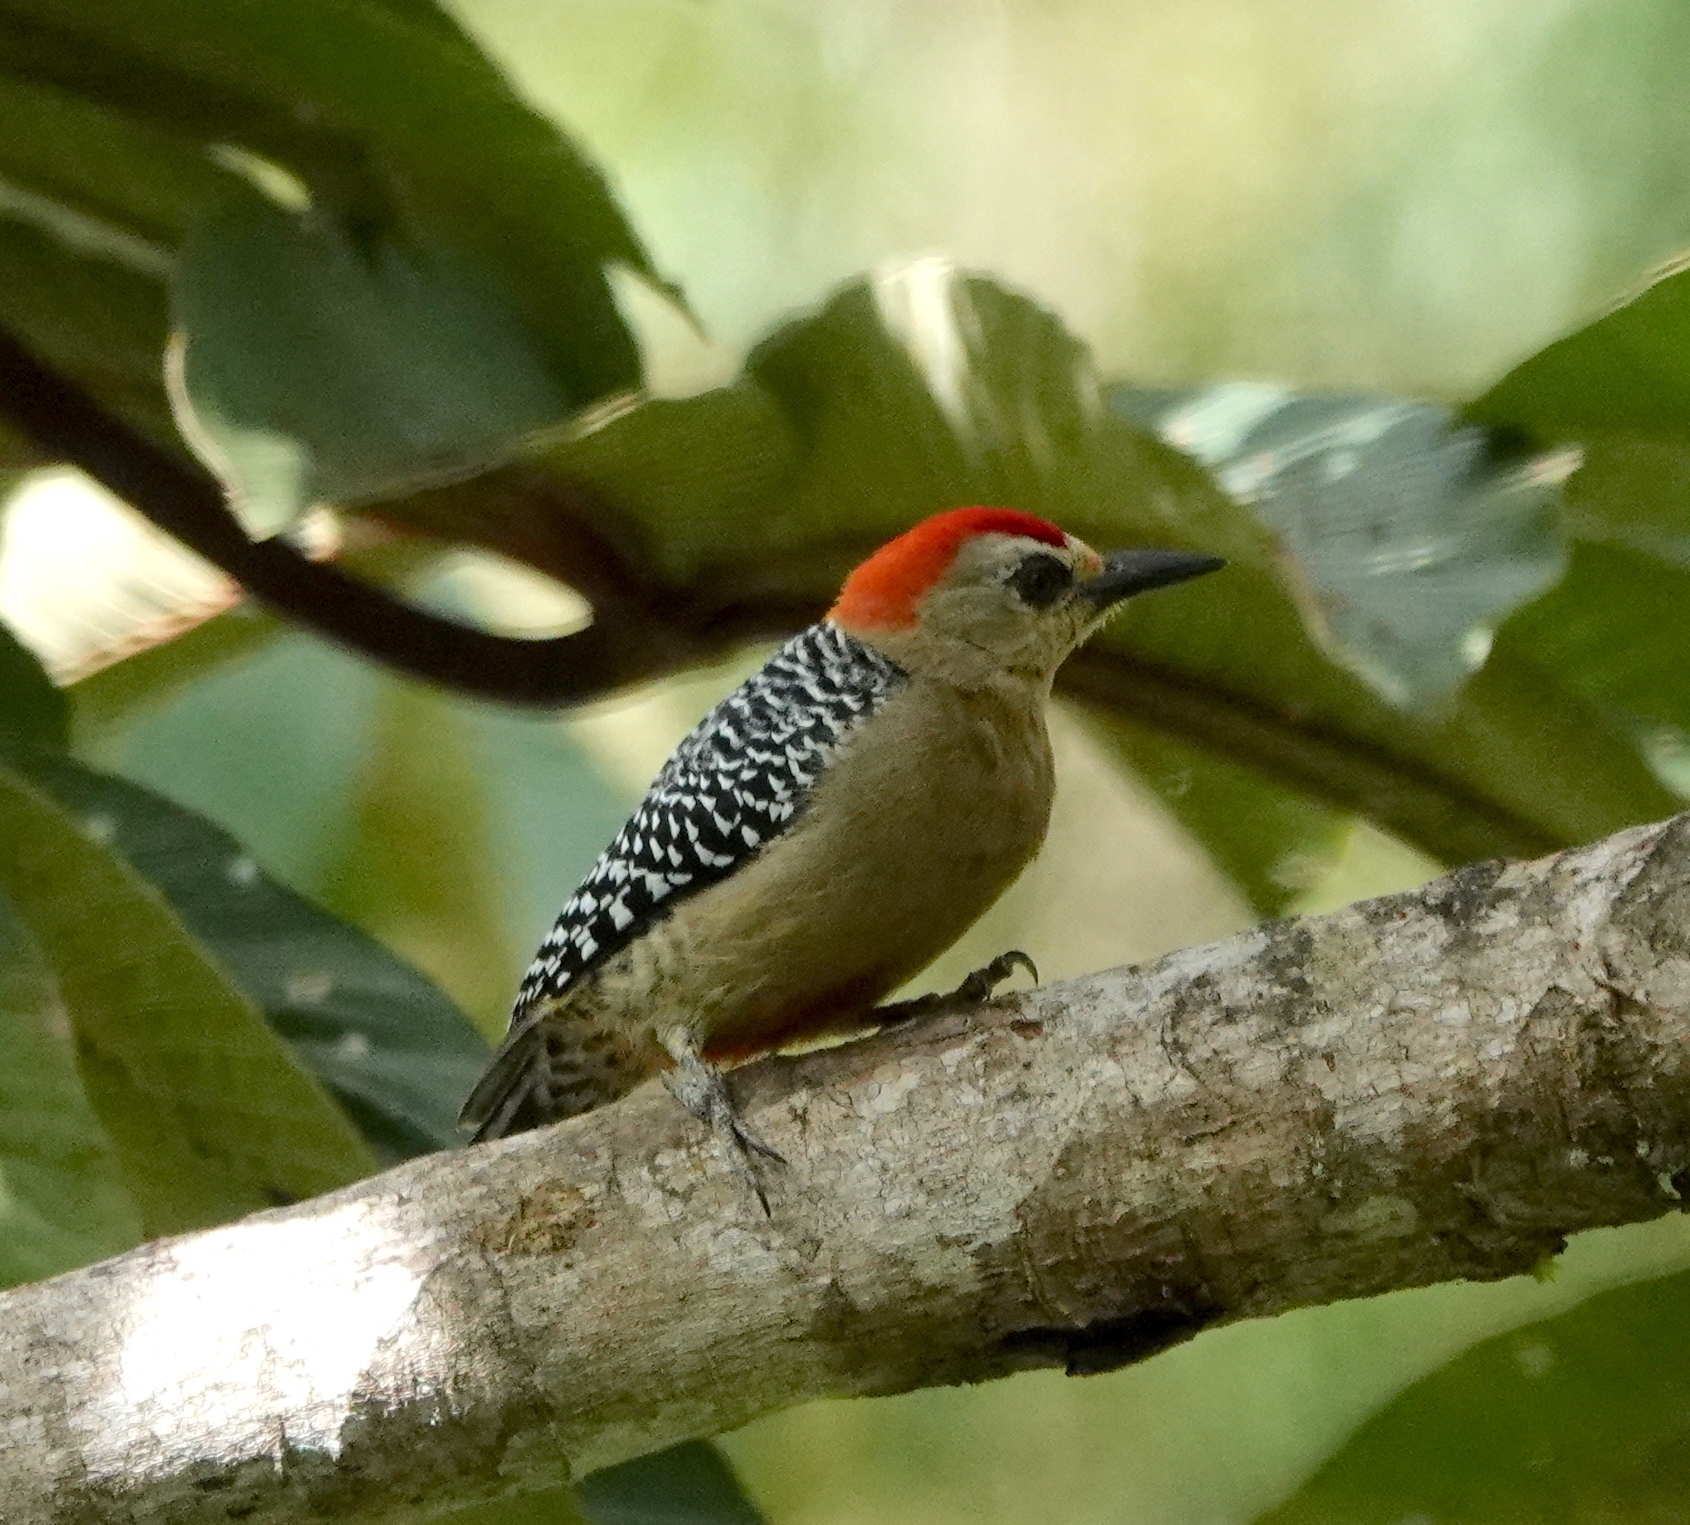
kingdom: Animalia
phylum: Chordata
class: Aves
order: Piciformes
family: Picidae
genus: Melanerpes
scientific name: Melanerpes rubricapillus
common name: Red-crowned woodpecker
